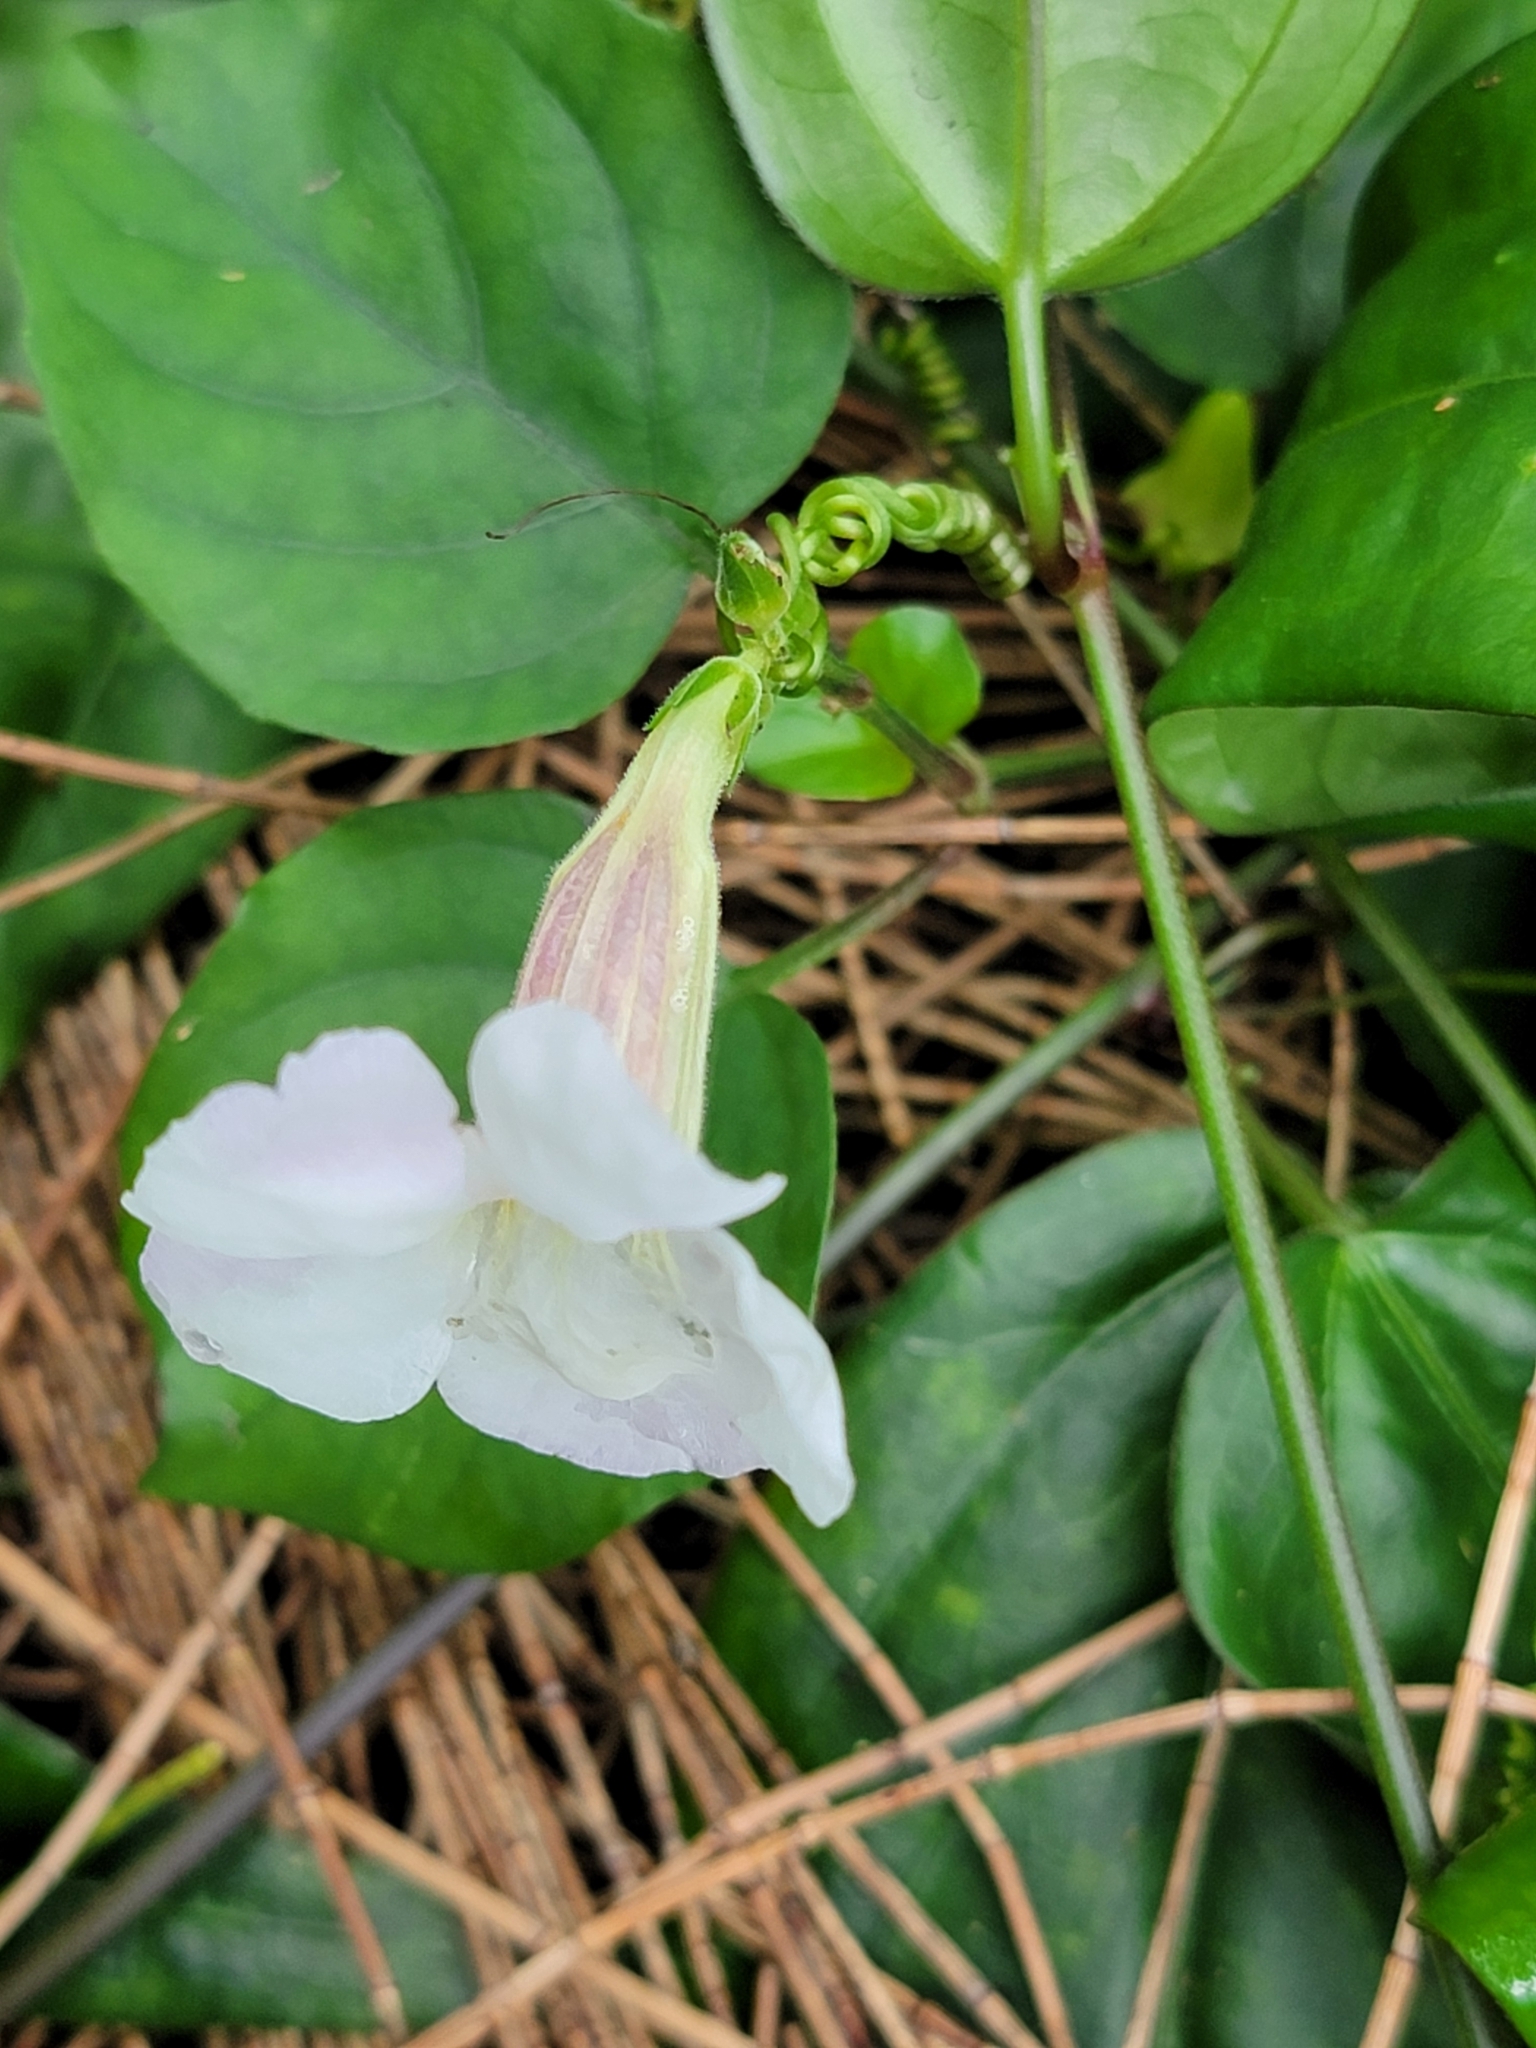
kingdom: Plantae
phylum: Tracheophyta
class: Magnoliopsida
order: Lamiales
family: Acanthaceae
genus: Asystasia
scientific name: Asystasia gangetica
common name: Chinese violet
